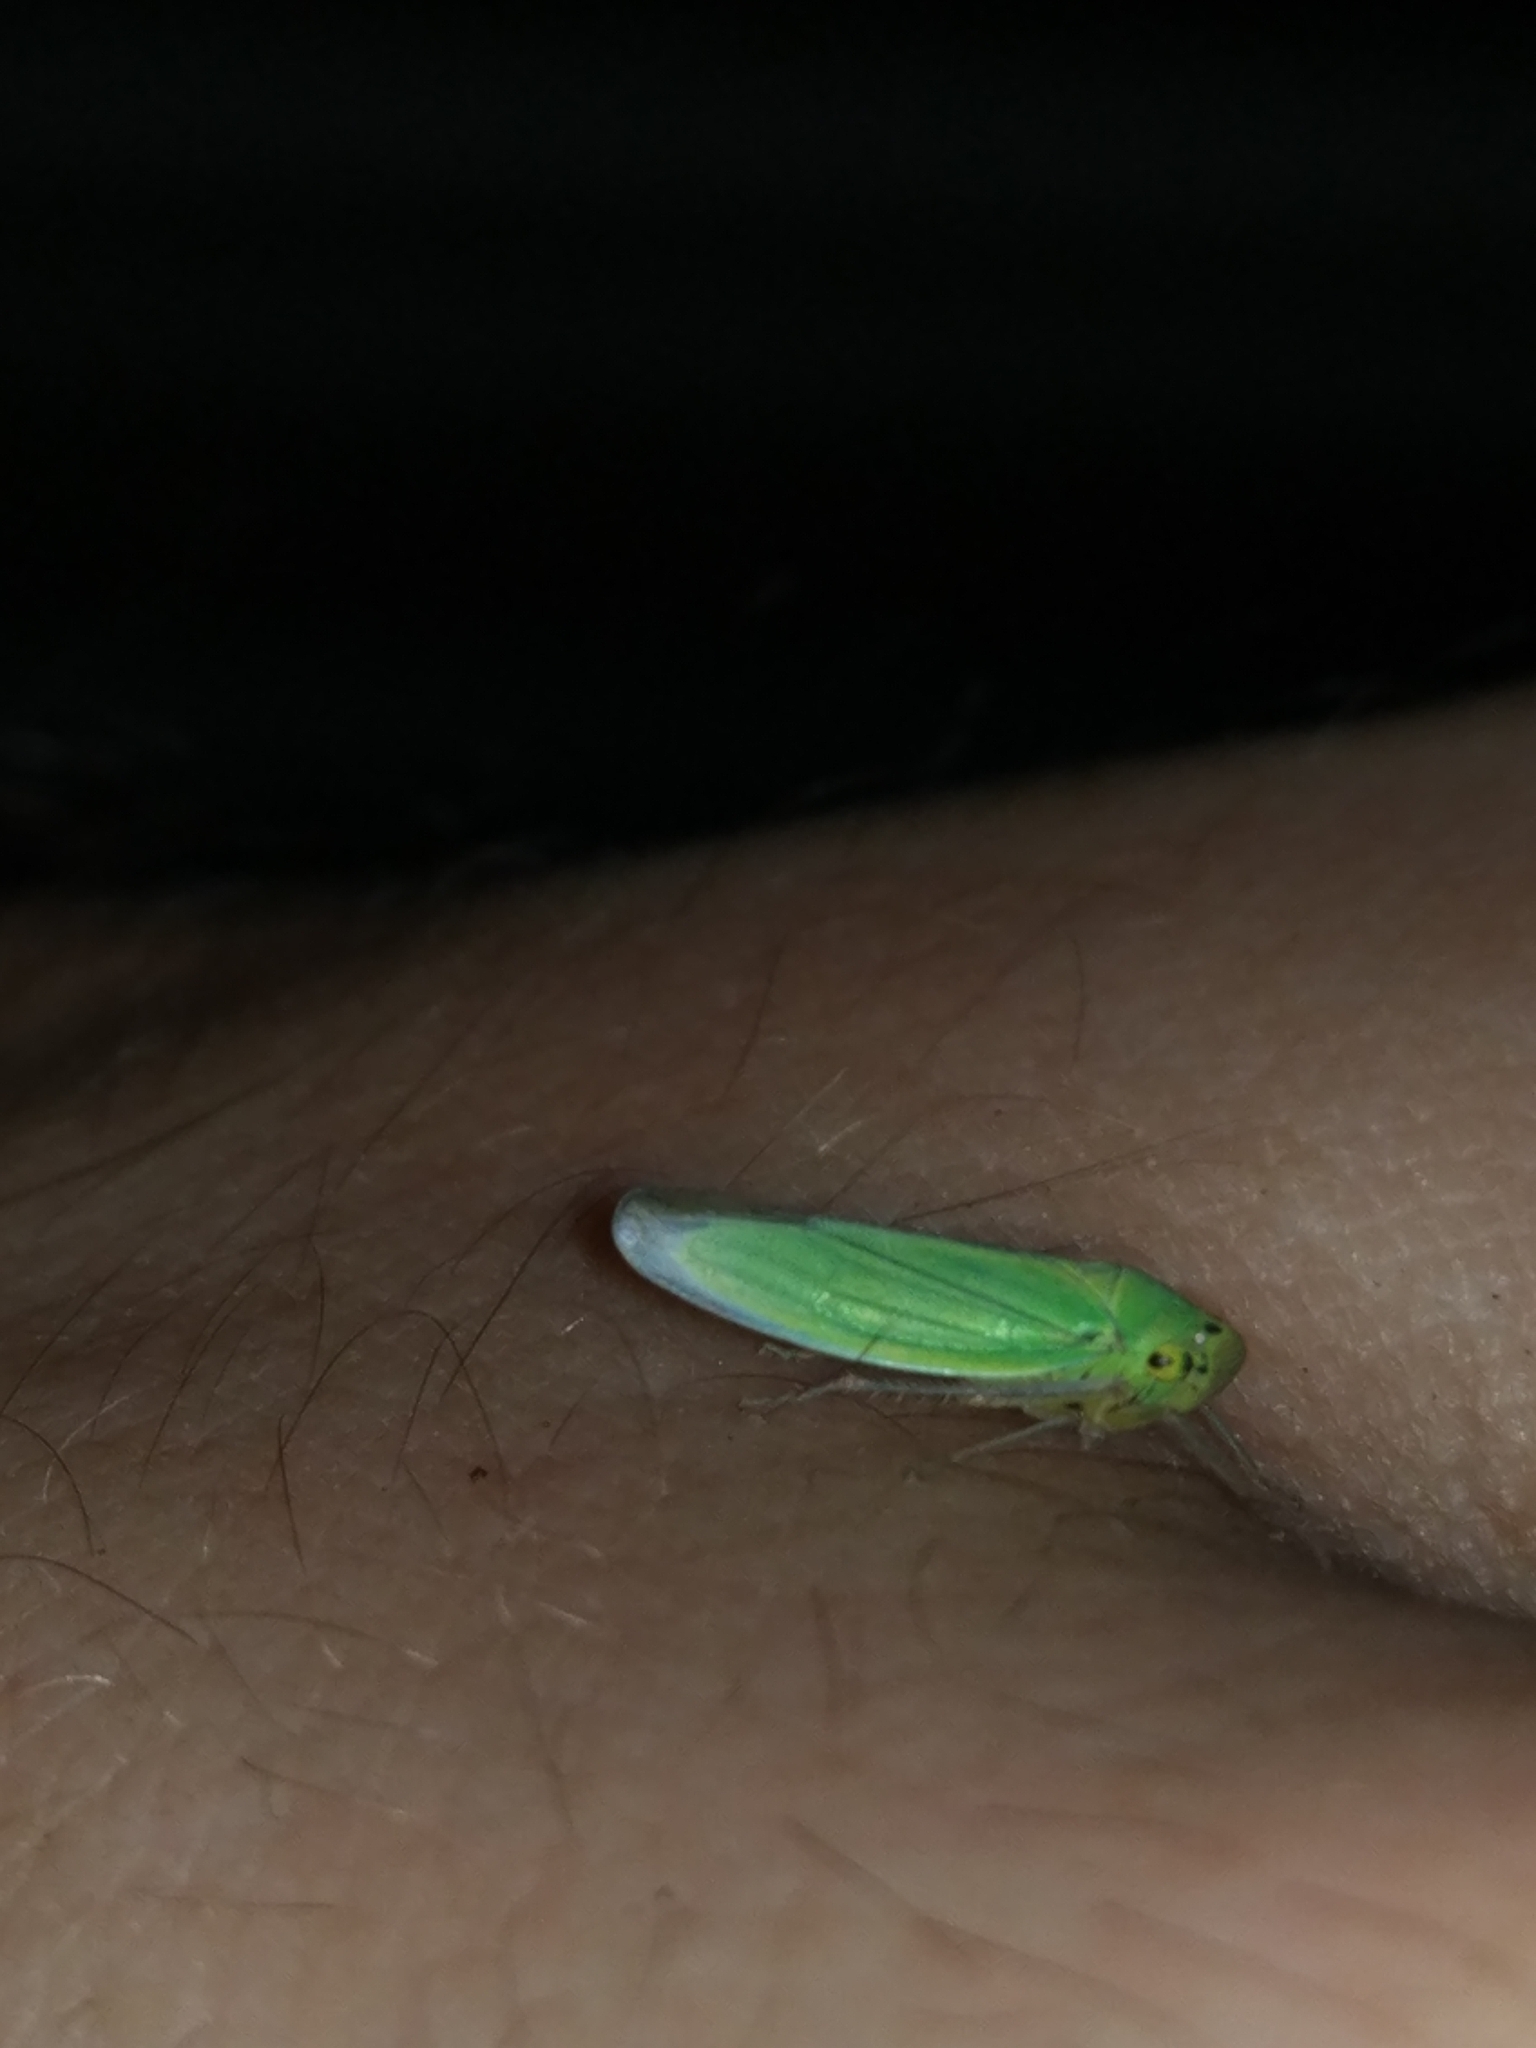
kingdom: Animalia
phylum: Arthropoda
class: Insecta
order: Hemiptera
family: Cicadellidae
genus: Cicadella
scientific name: Cicadella viridis
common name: Leafhopper
